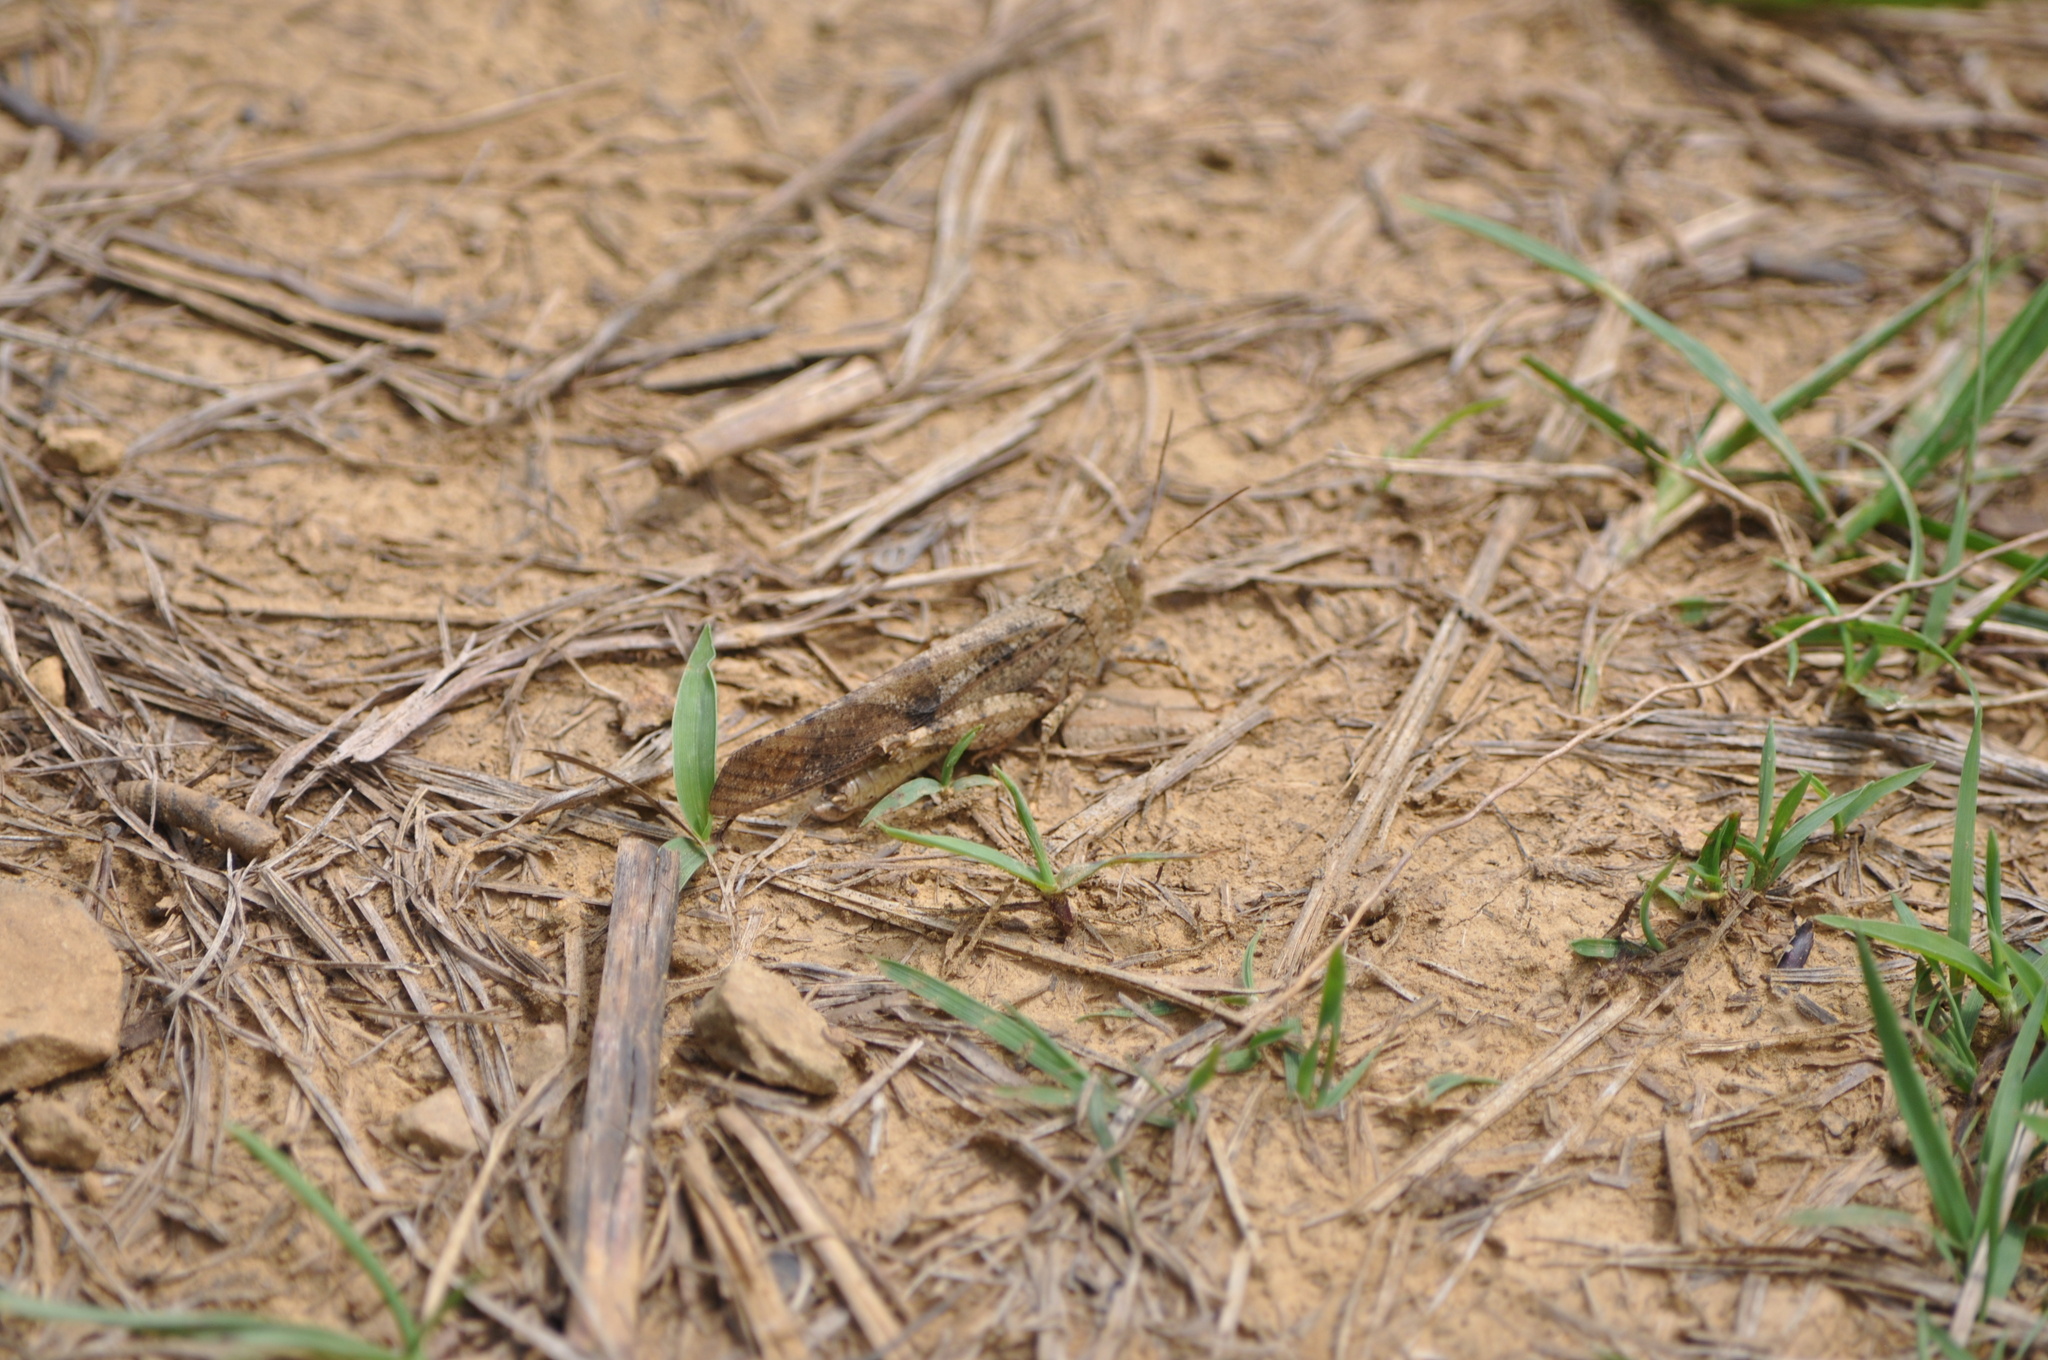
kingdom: Animalia
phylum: Arthropoda
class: Insecta
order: Orthoptera
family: Acrididae
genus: Dissosteira
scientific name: Dissosteira carolina
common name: Carolina grasshopper
